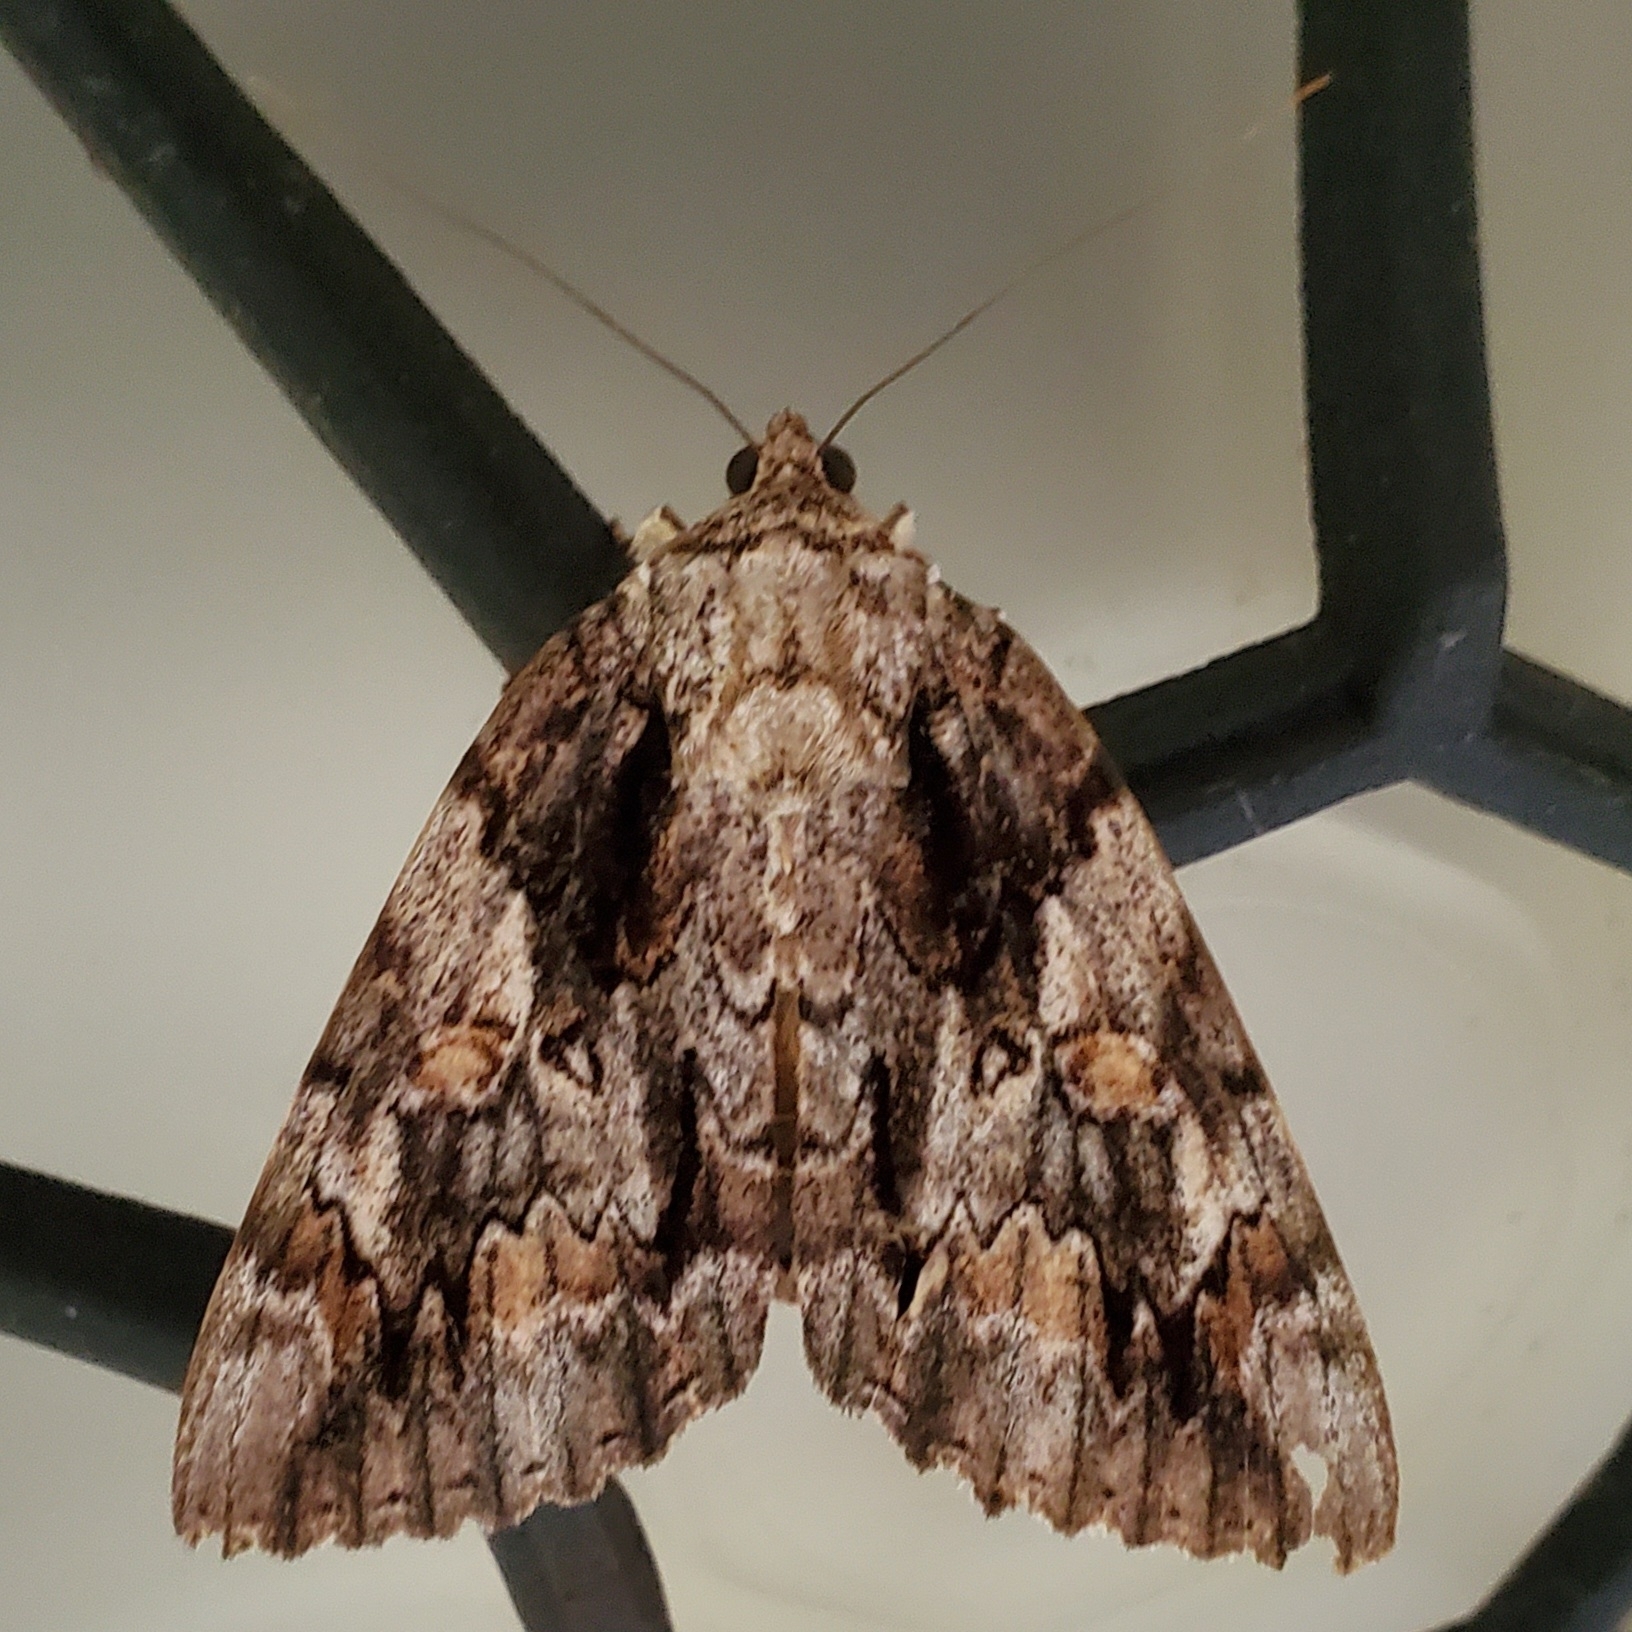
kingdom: Animalia
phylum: Arthropoda
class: Insecta
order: Lepidoptera
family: Erebidae
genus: Catocala
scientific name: Catocala neogama
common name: Bride underwing
